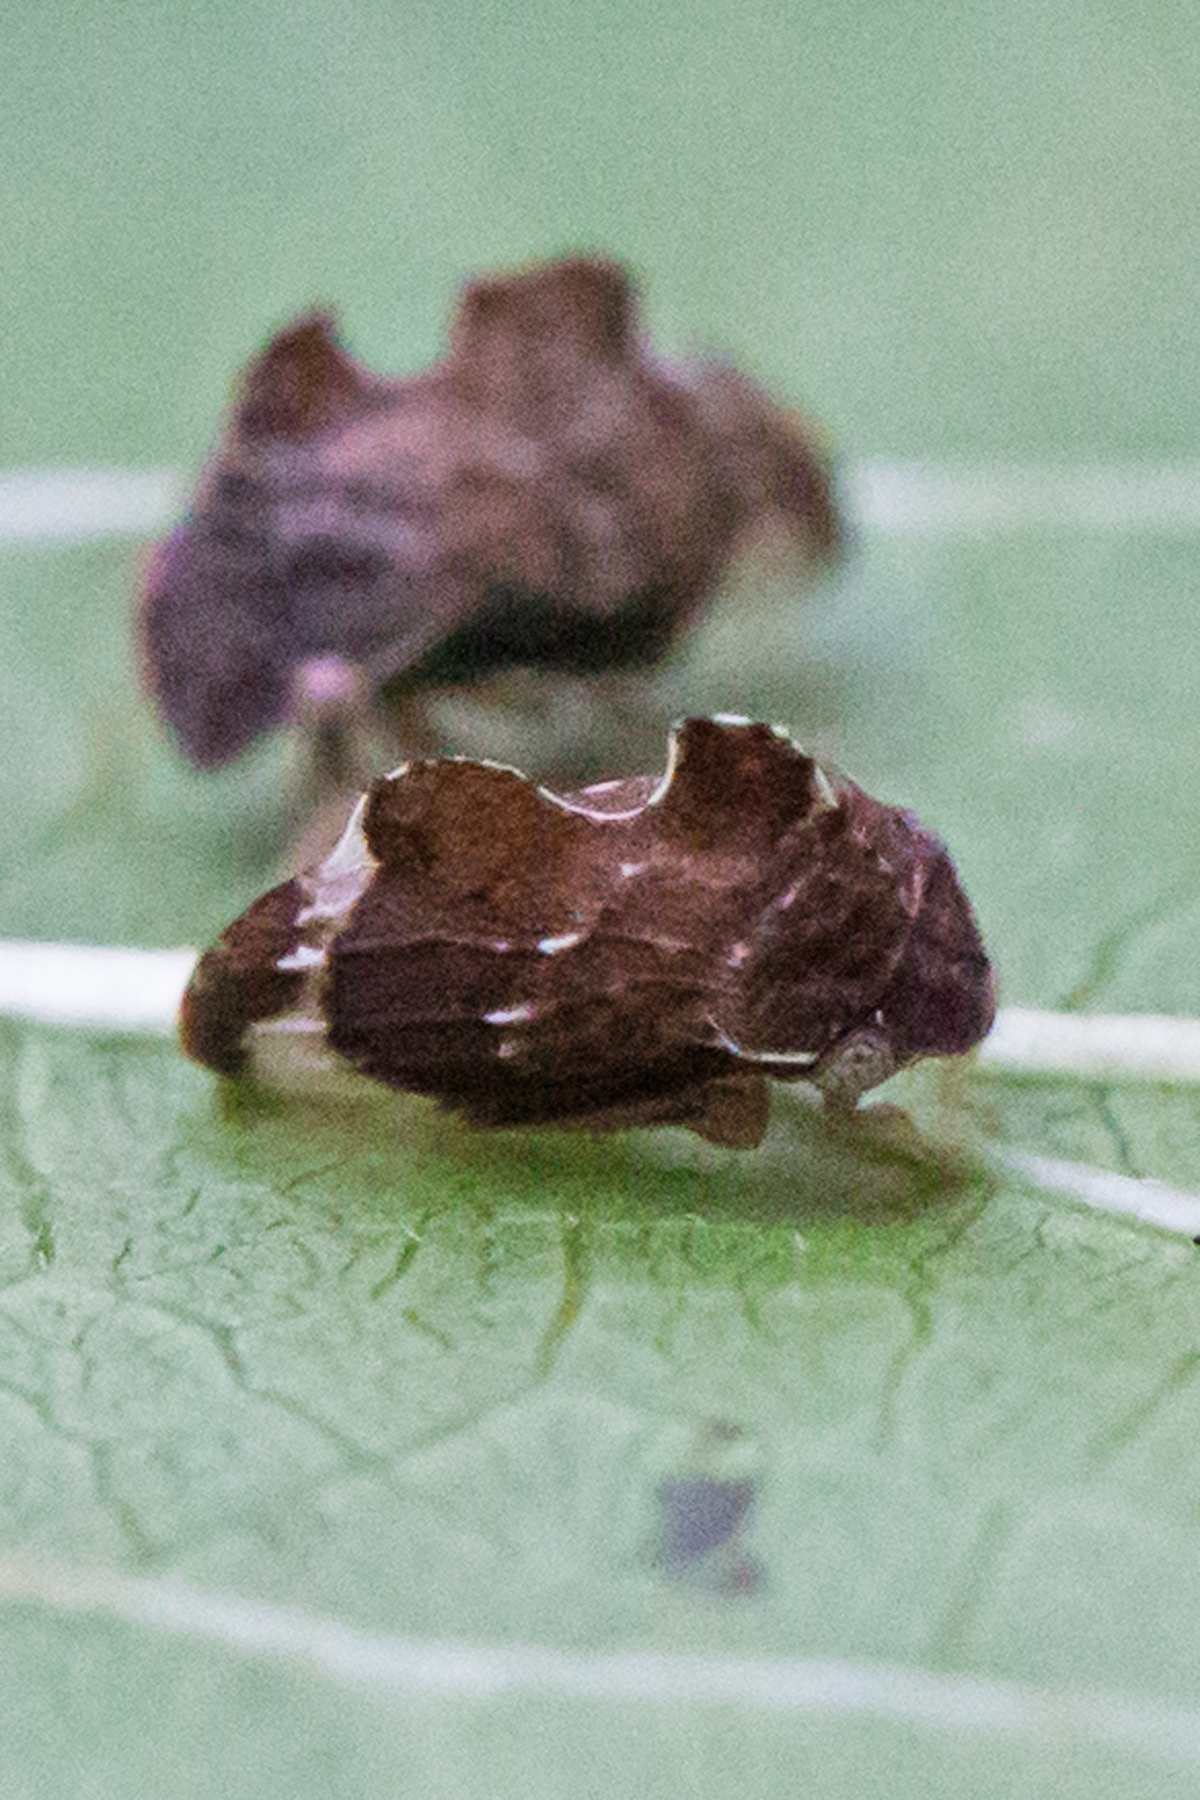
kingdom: Animalia
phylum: Arthropoda
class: Insecta
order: Hemiptera
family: Membracidae
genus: Entylia
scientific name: Entylia carinata
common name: Keeled treehopper
